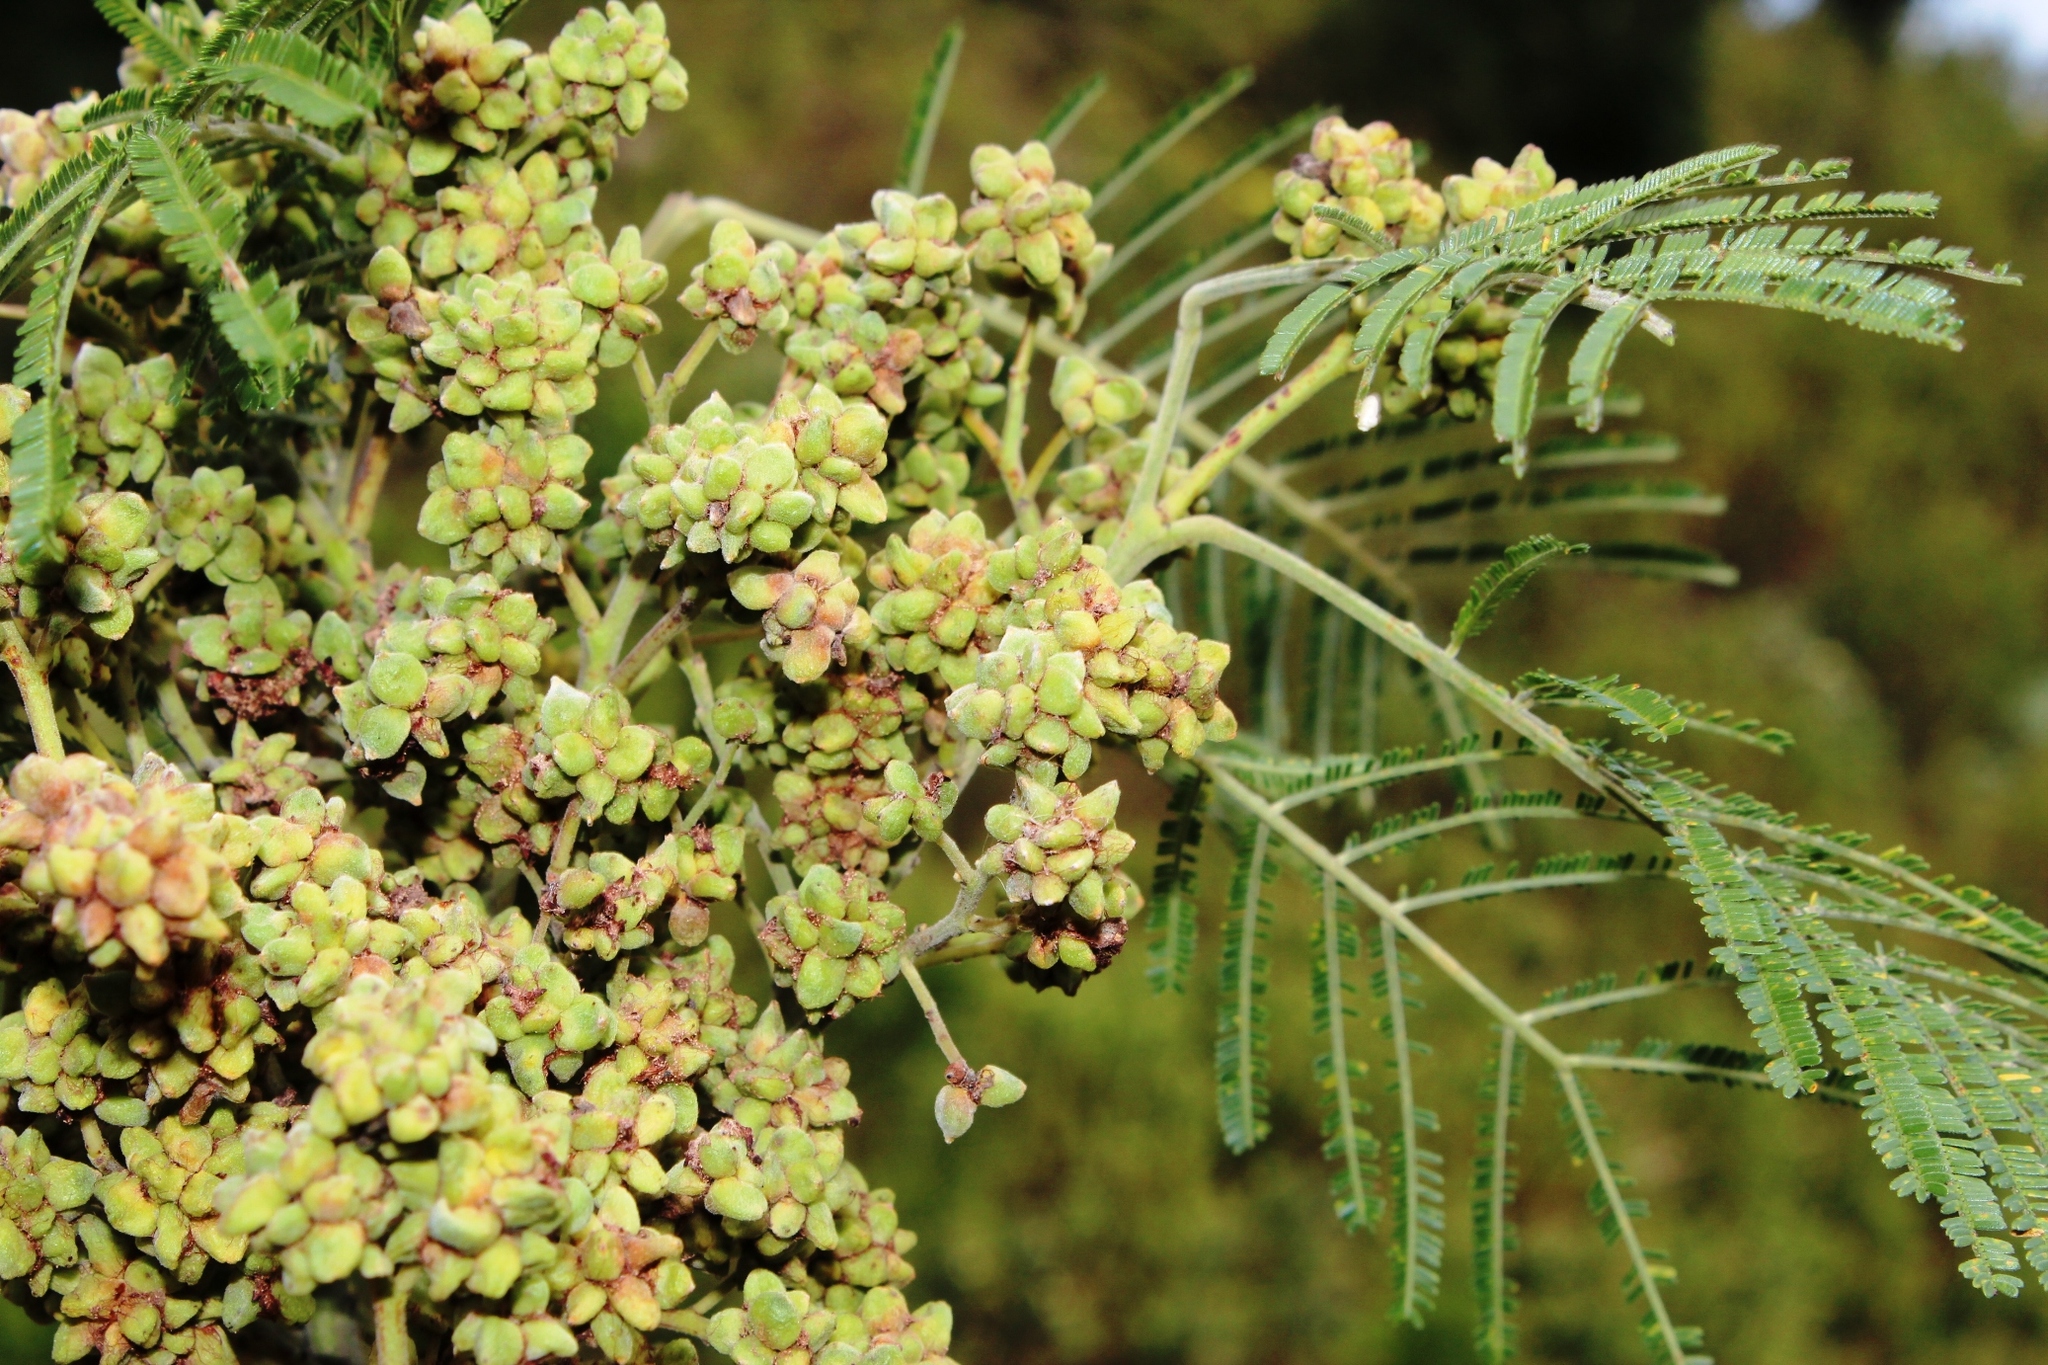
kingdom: Animalia
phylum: Arthropoda
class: Insecta
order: Diptera
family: Cecidomyiidae
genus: Dasineura
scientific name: Dasineura rubiformis
